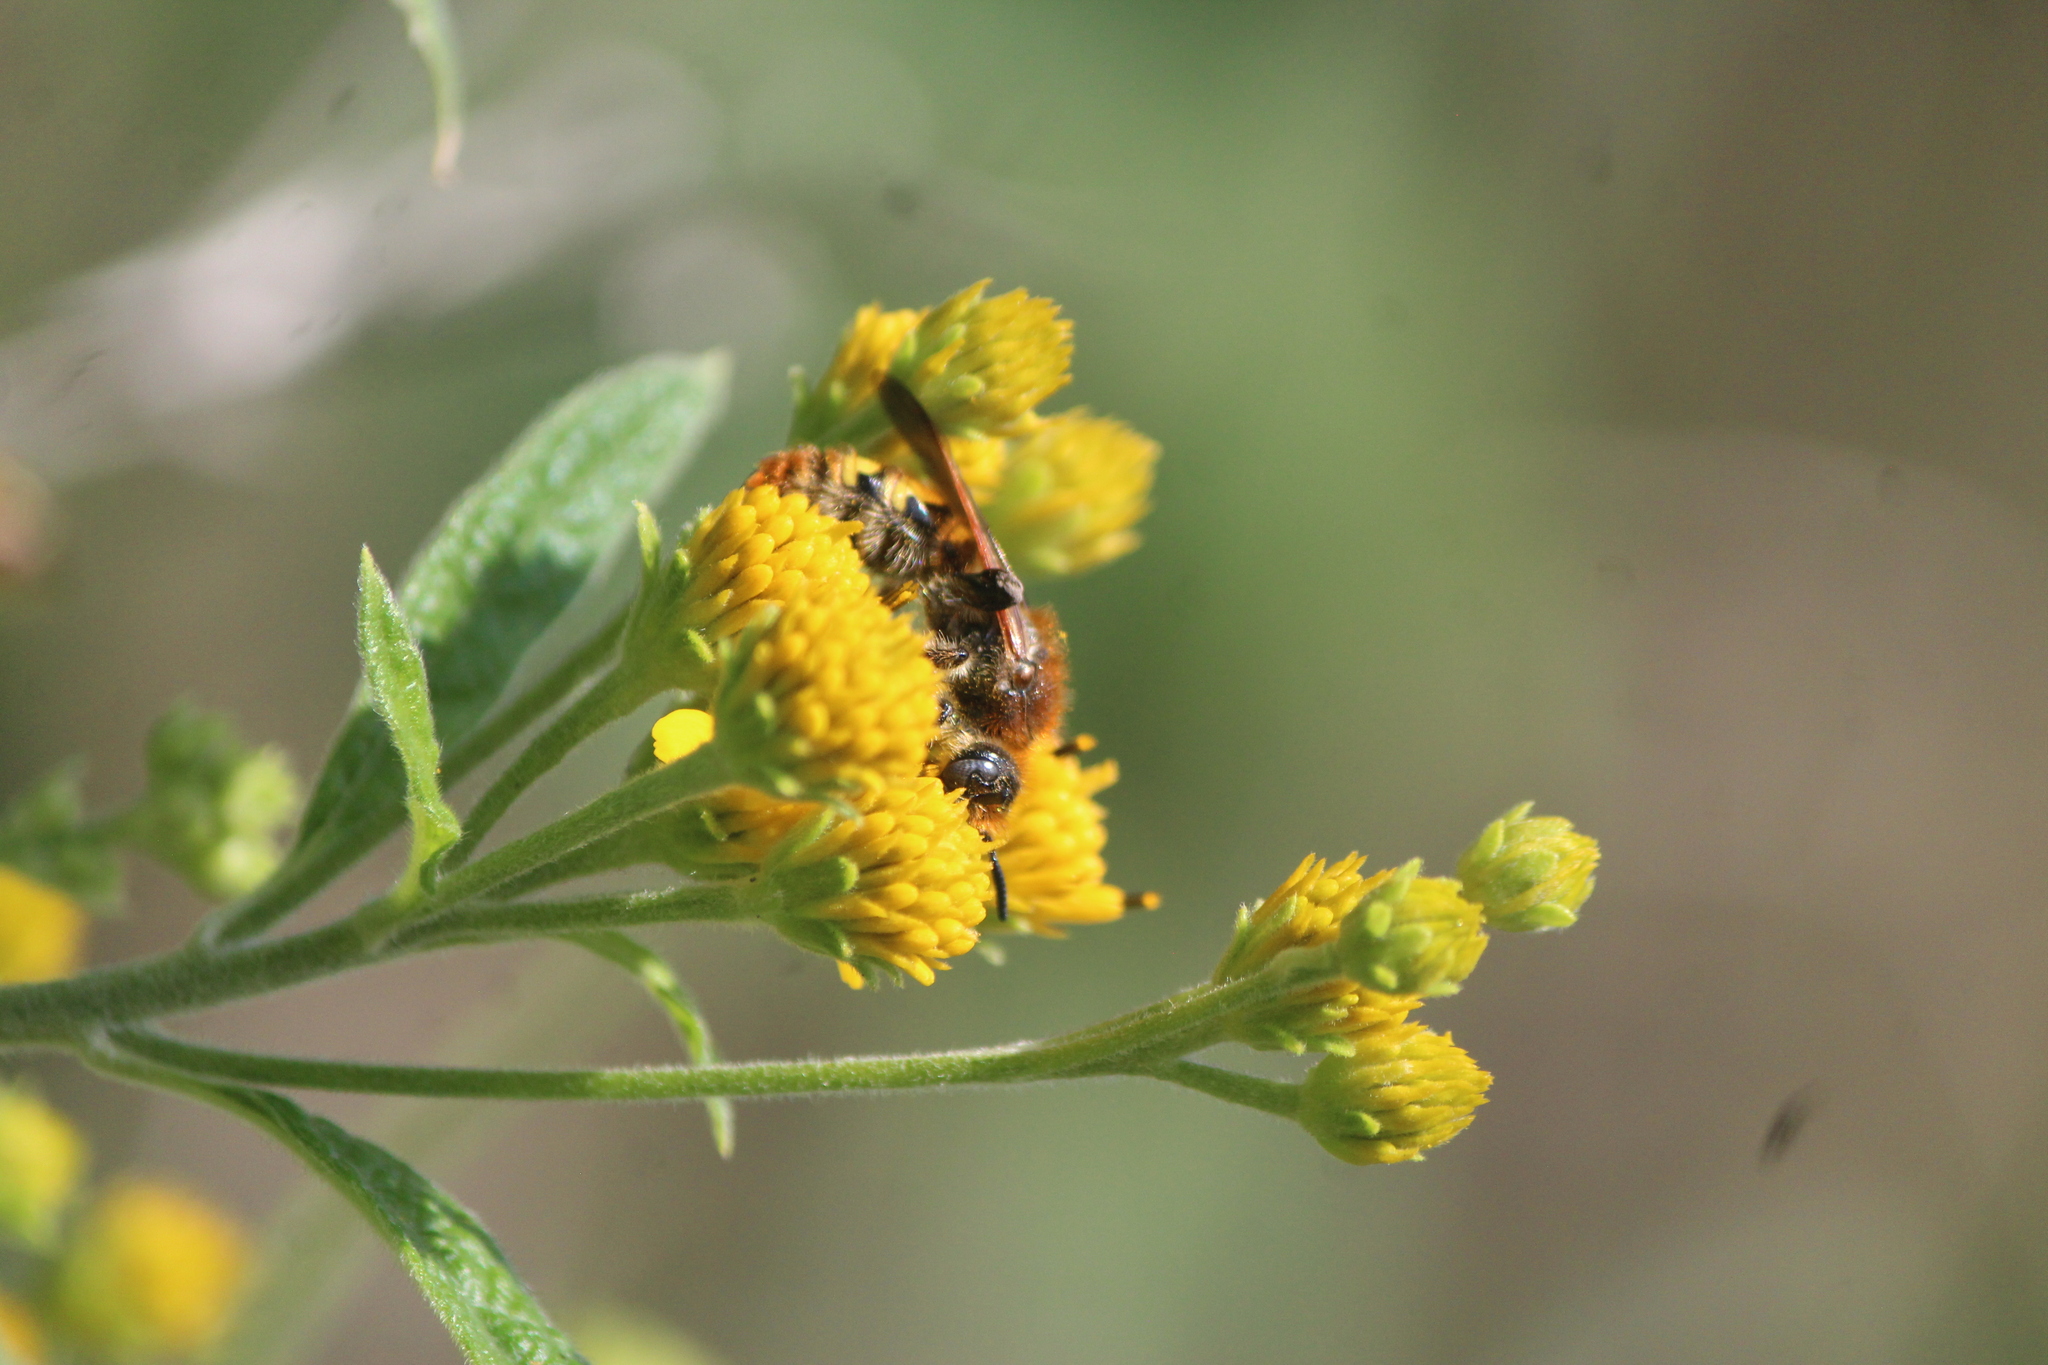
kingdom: Animalia
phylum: Arthropoda
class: Insecta
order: Hymenoptera
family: Scoliidae
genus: Xantocampsomeris
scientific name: Xantocampsomeris limosa
